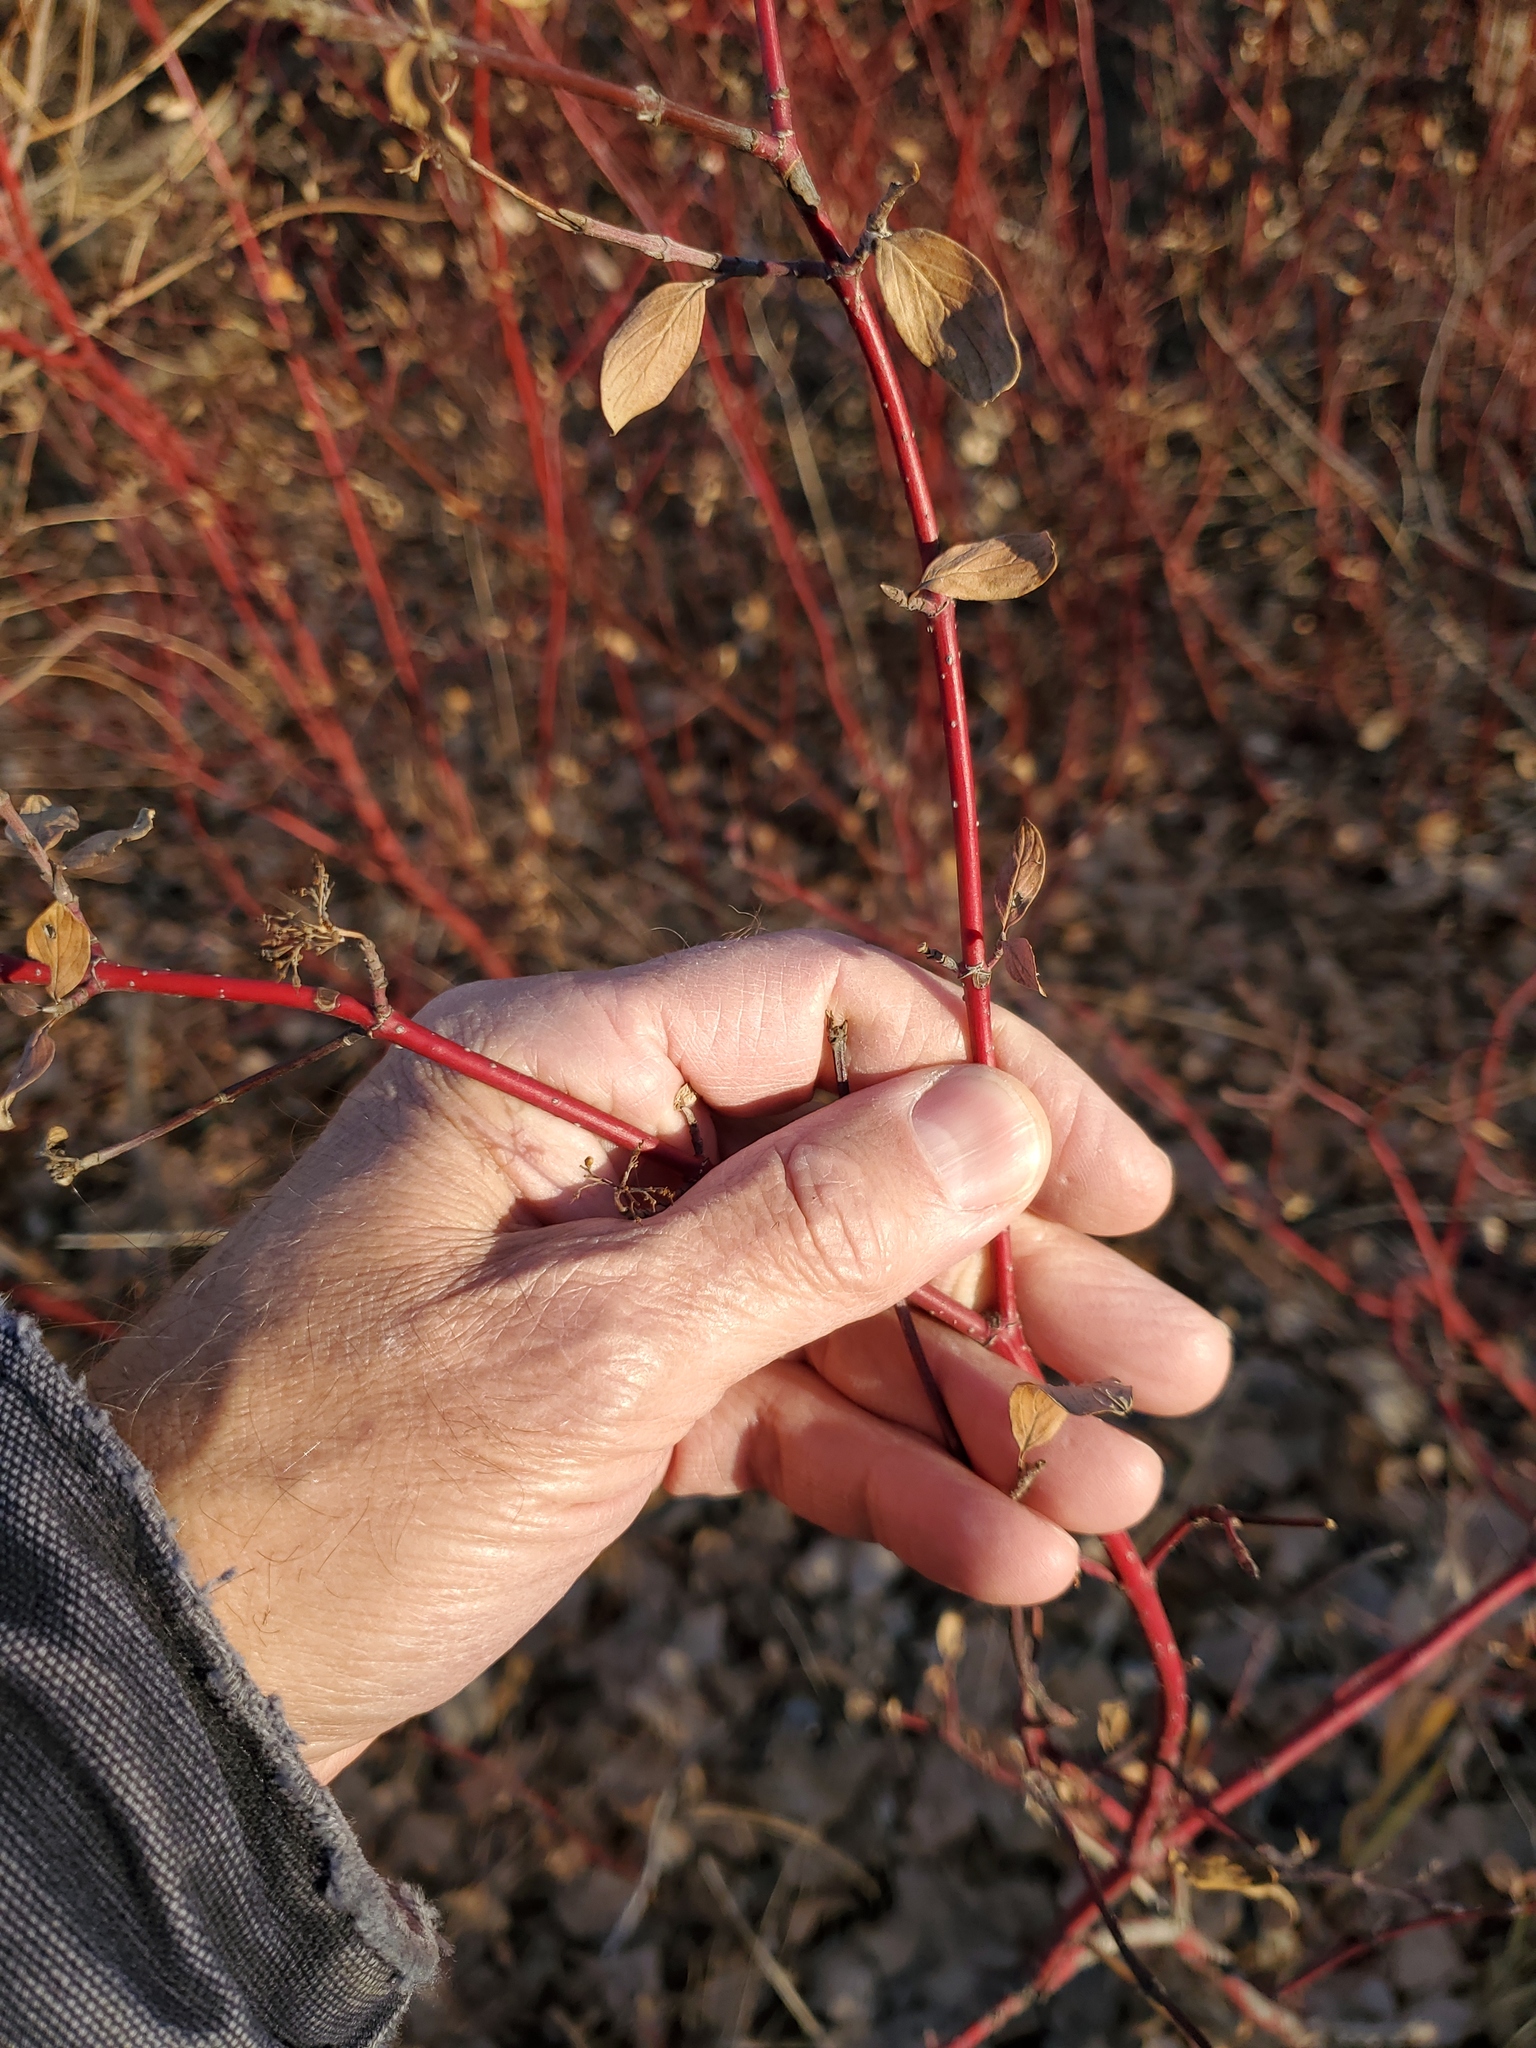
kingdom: Plantae
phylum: Tracheophyta
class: Magnoliopsida
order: Cornales
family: Cornaceae
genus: Cornus
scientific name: Cornus sericea
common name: Red-osier dogwood
